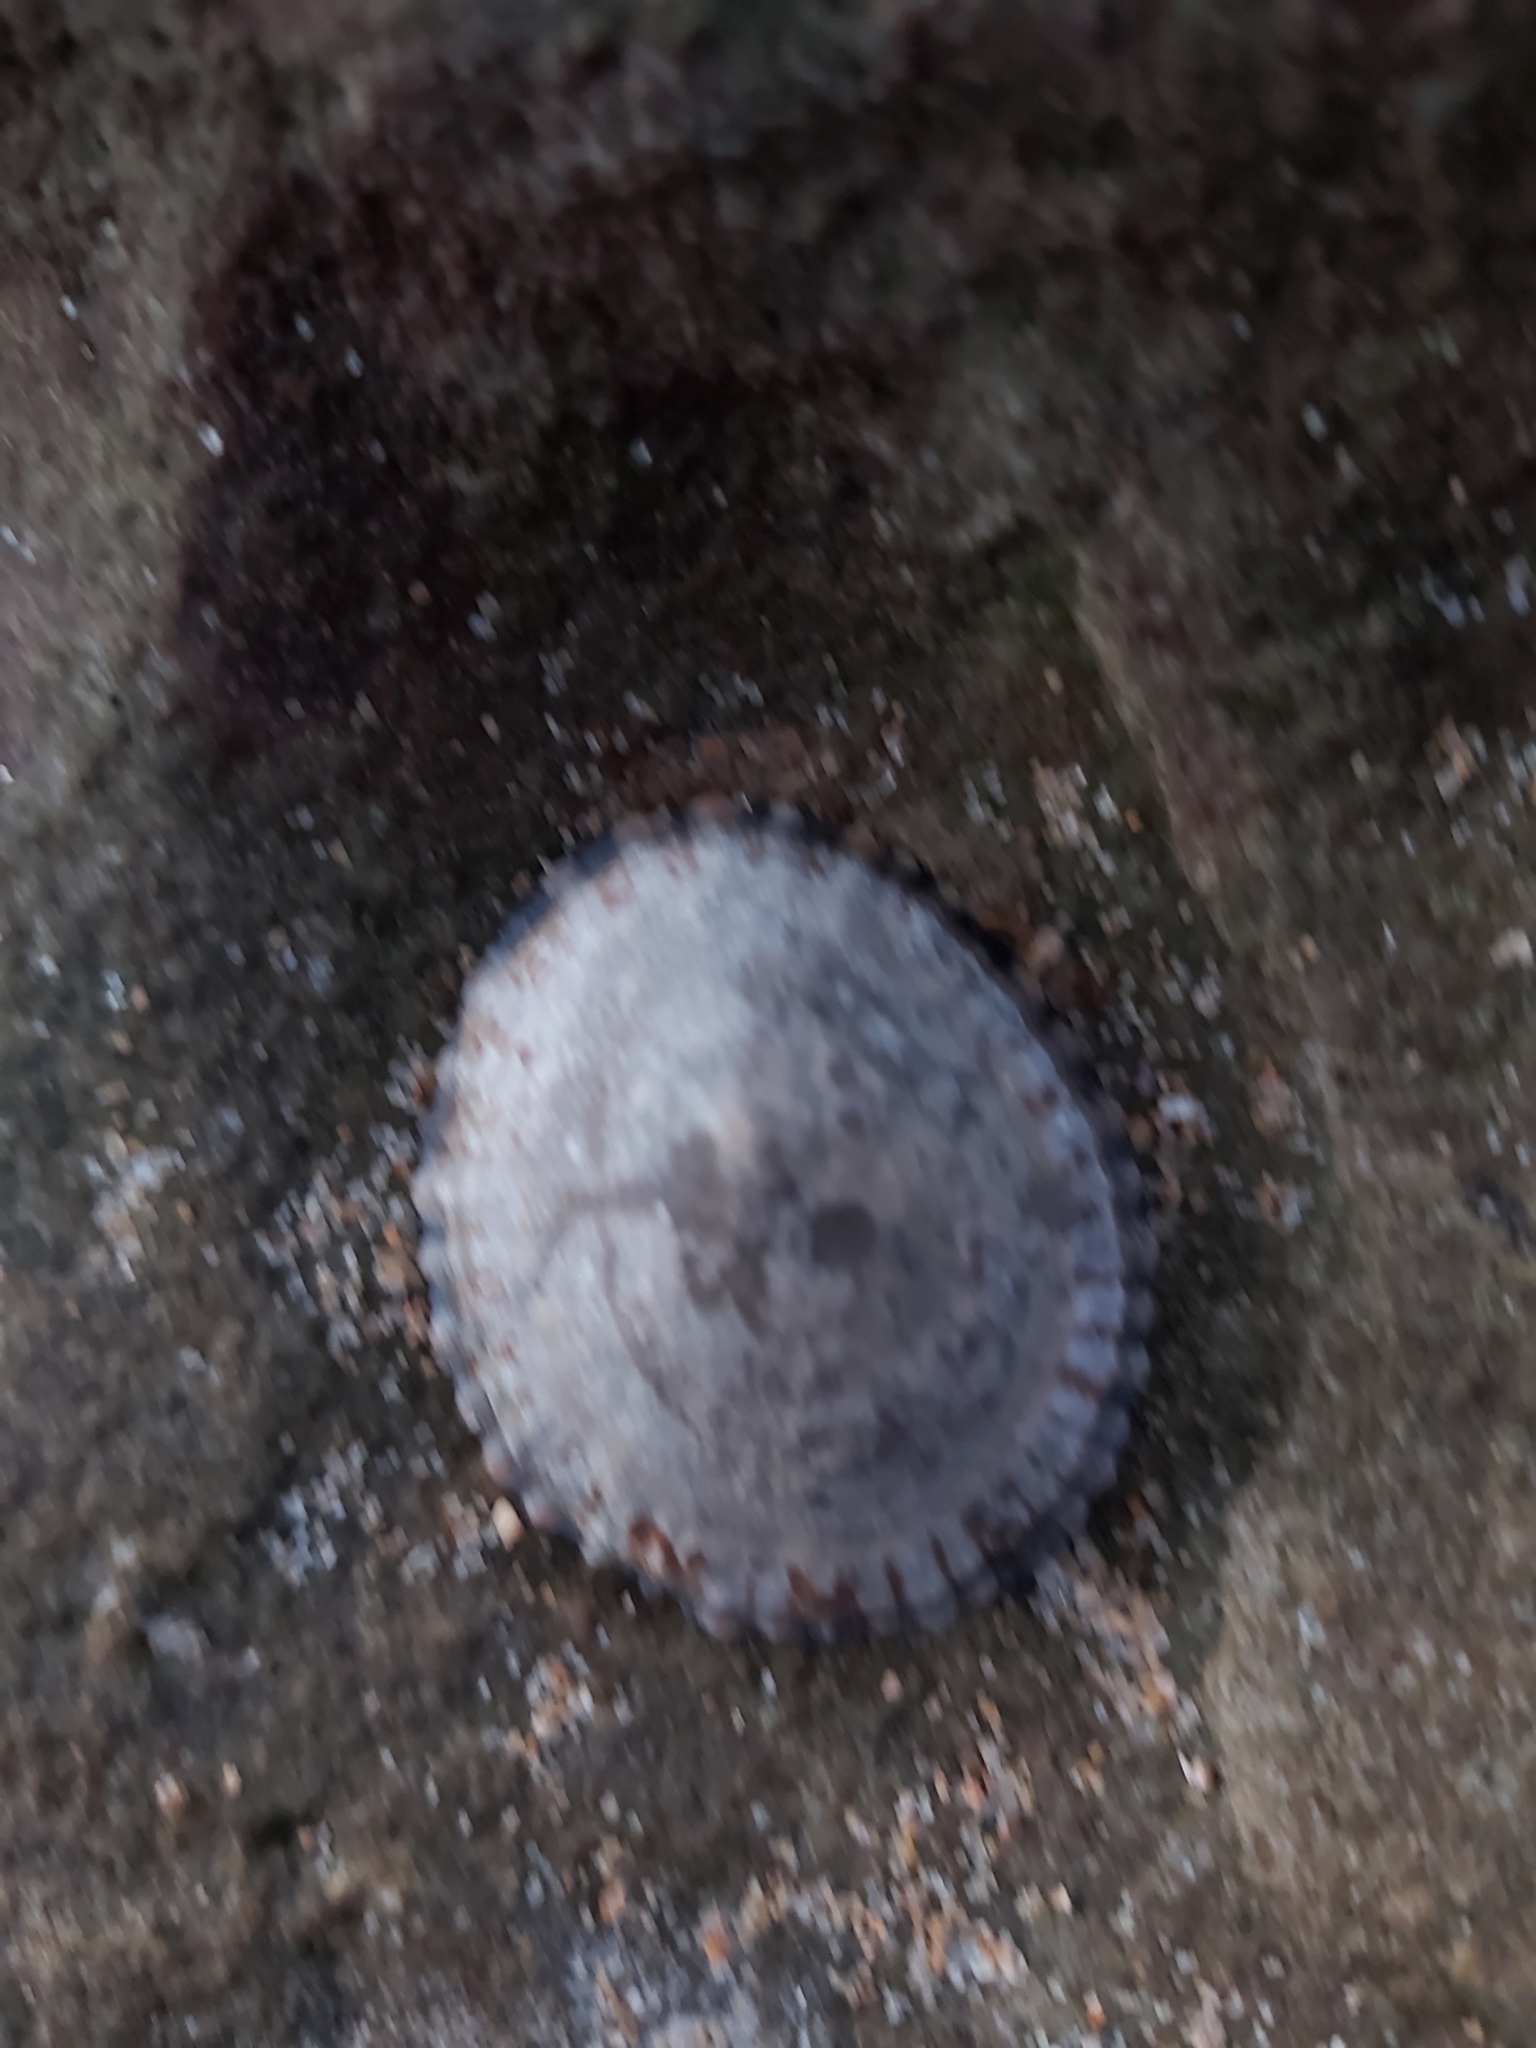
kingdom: Animalia
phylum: Mollusca
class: Gastropoda
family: Nacellidae
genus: Cellana
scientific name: Cellana tramoserica
